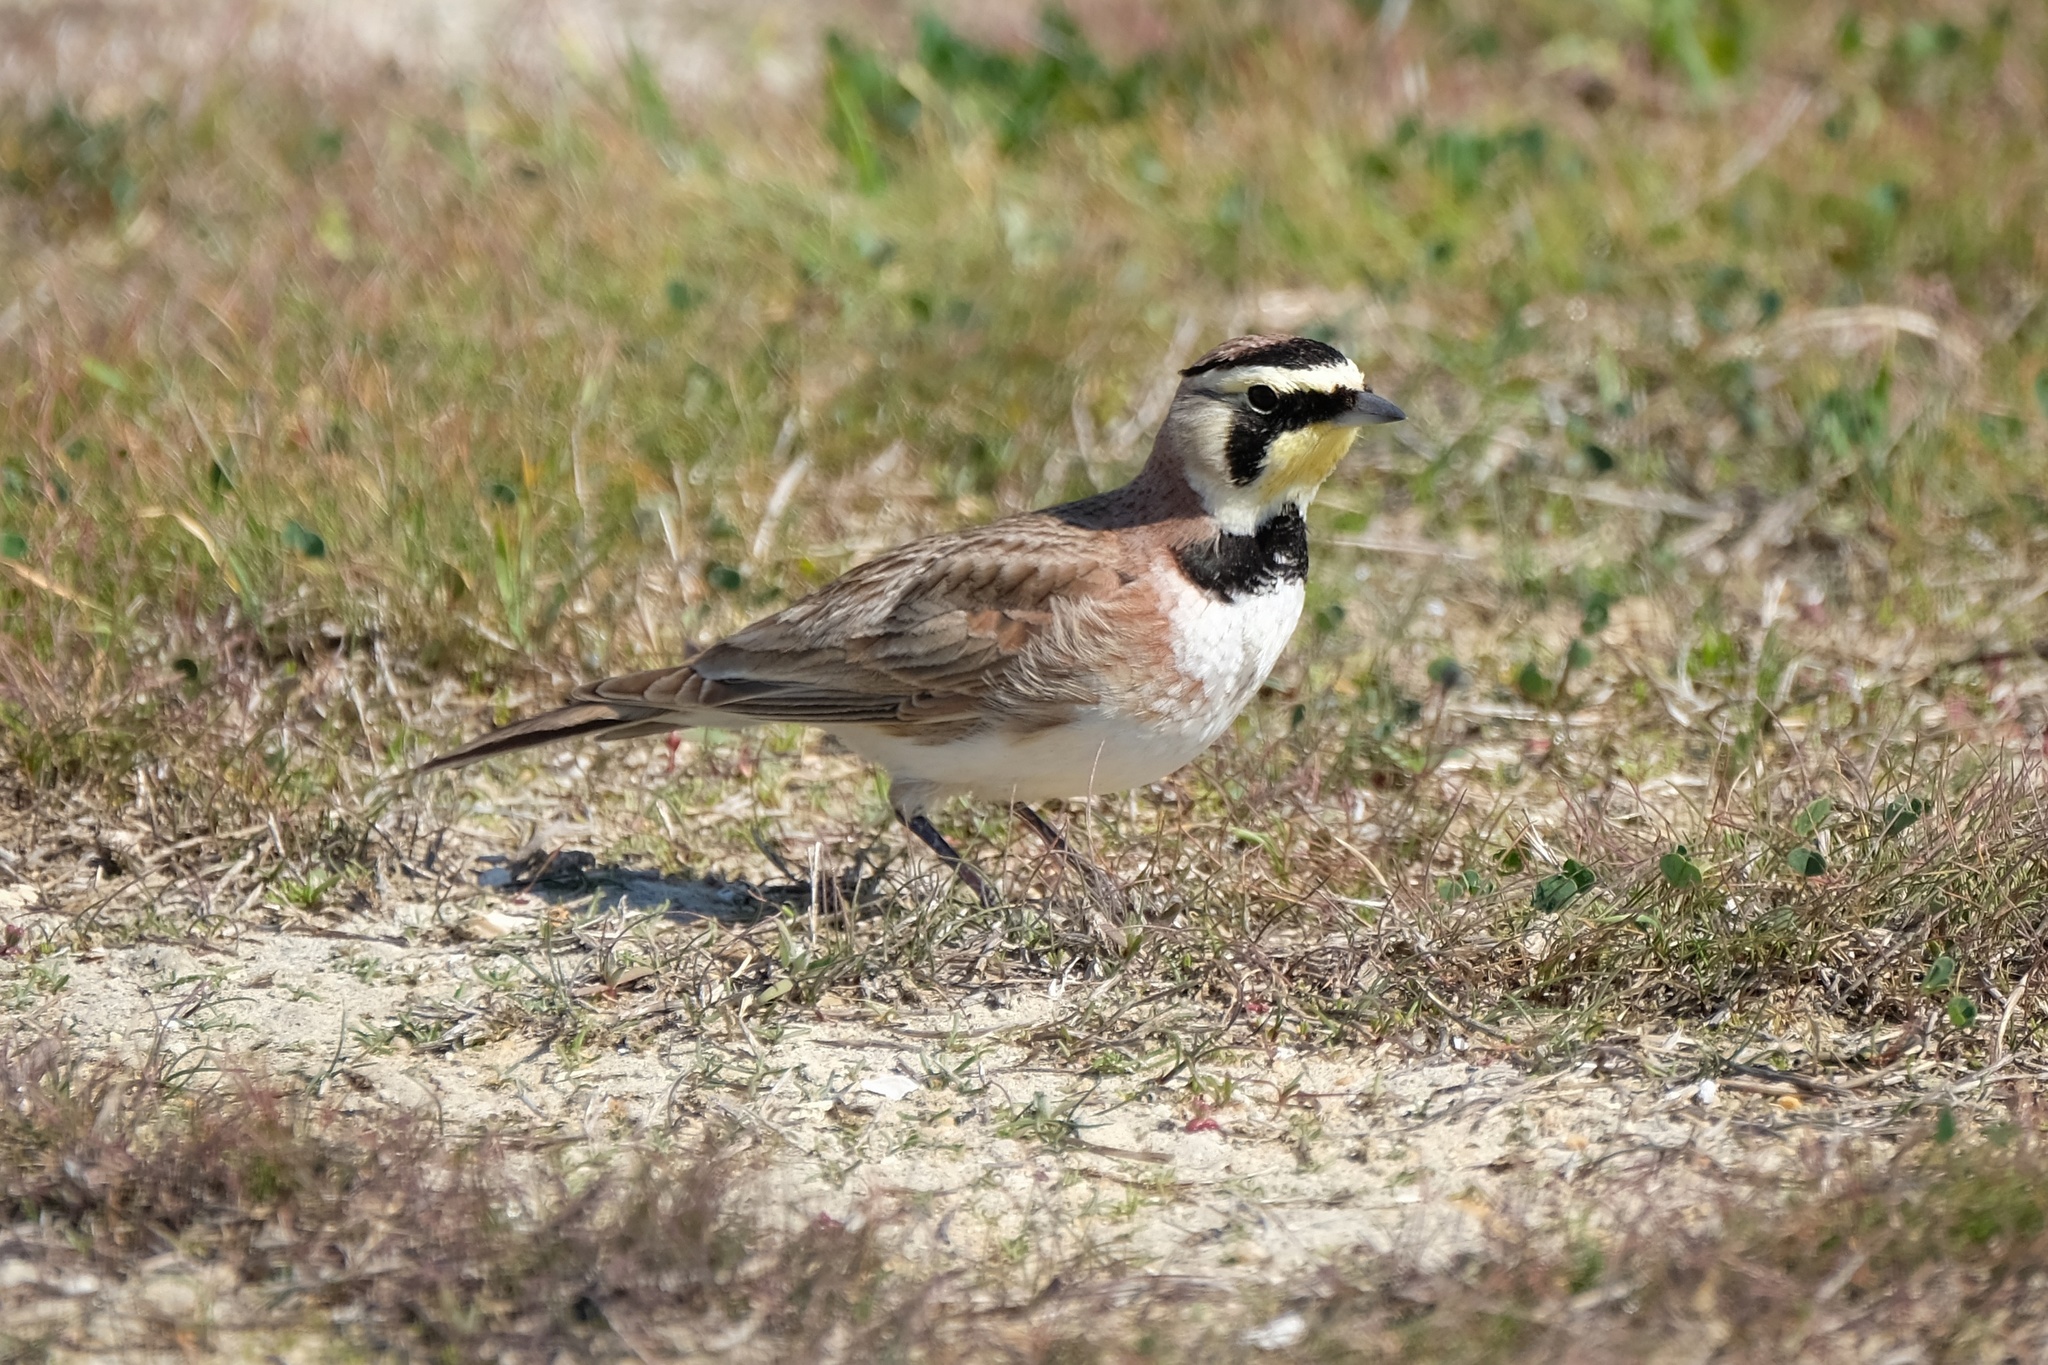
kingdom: Animalia
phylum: Chordata
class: Aves
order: Passeriformes
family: Alaudidae
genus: Eremophila
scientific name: Eremophila alpestris
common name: Horned lark
